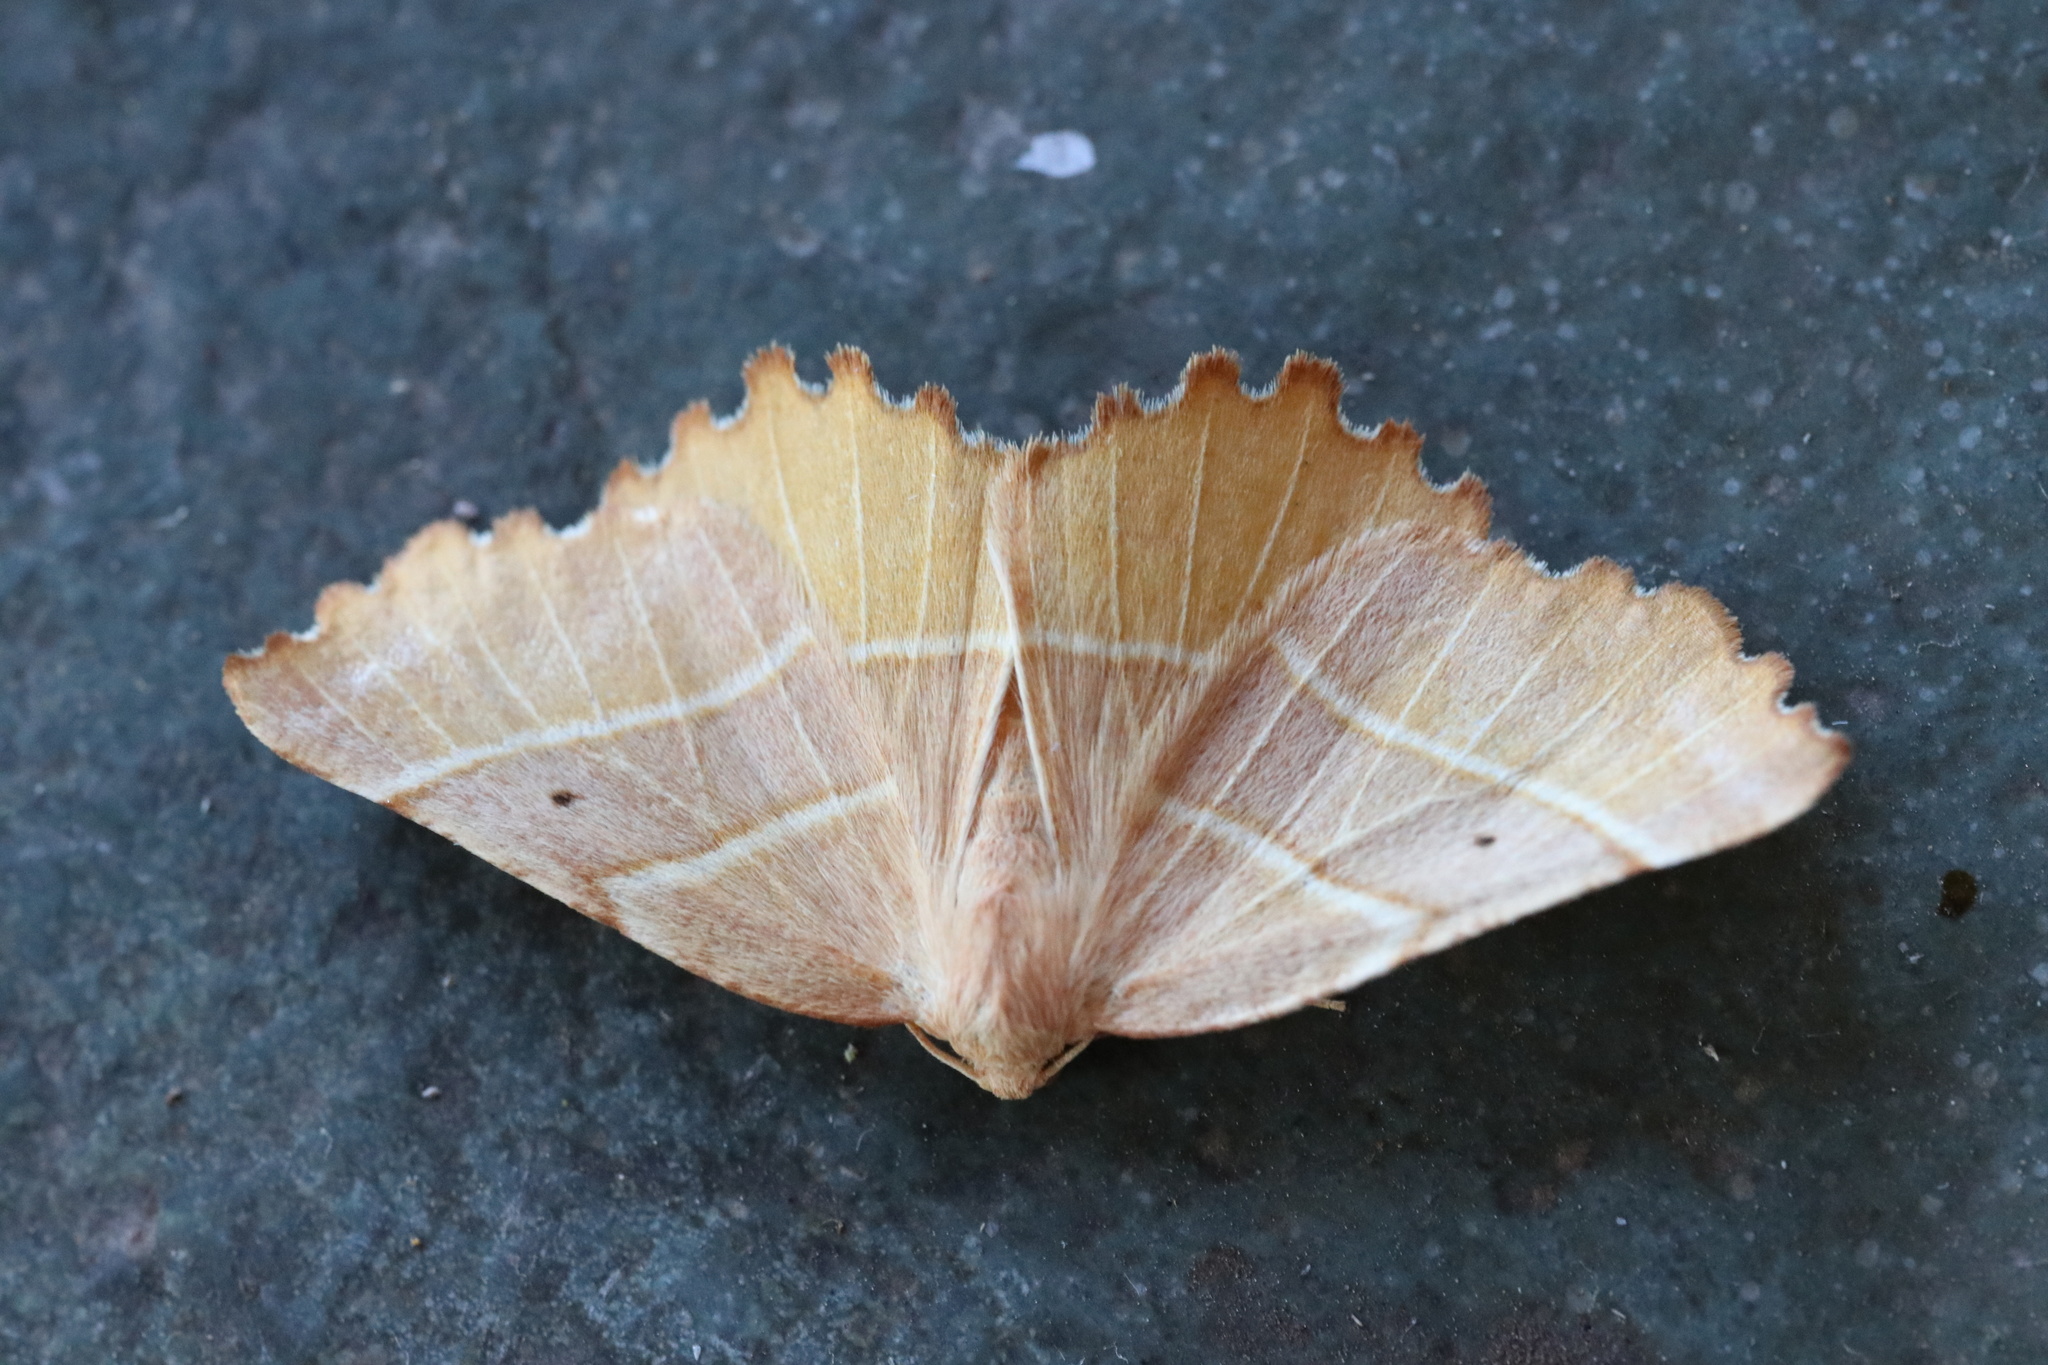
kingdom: Animalia
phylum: Arthropoda
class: Insecta
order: Lepidoptera
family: Geometridae
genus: Microclysia
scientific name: Microclysia pristopera
